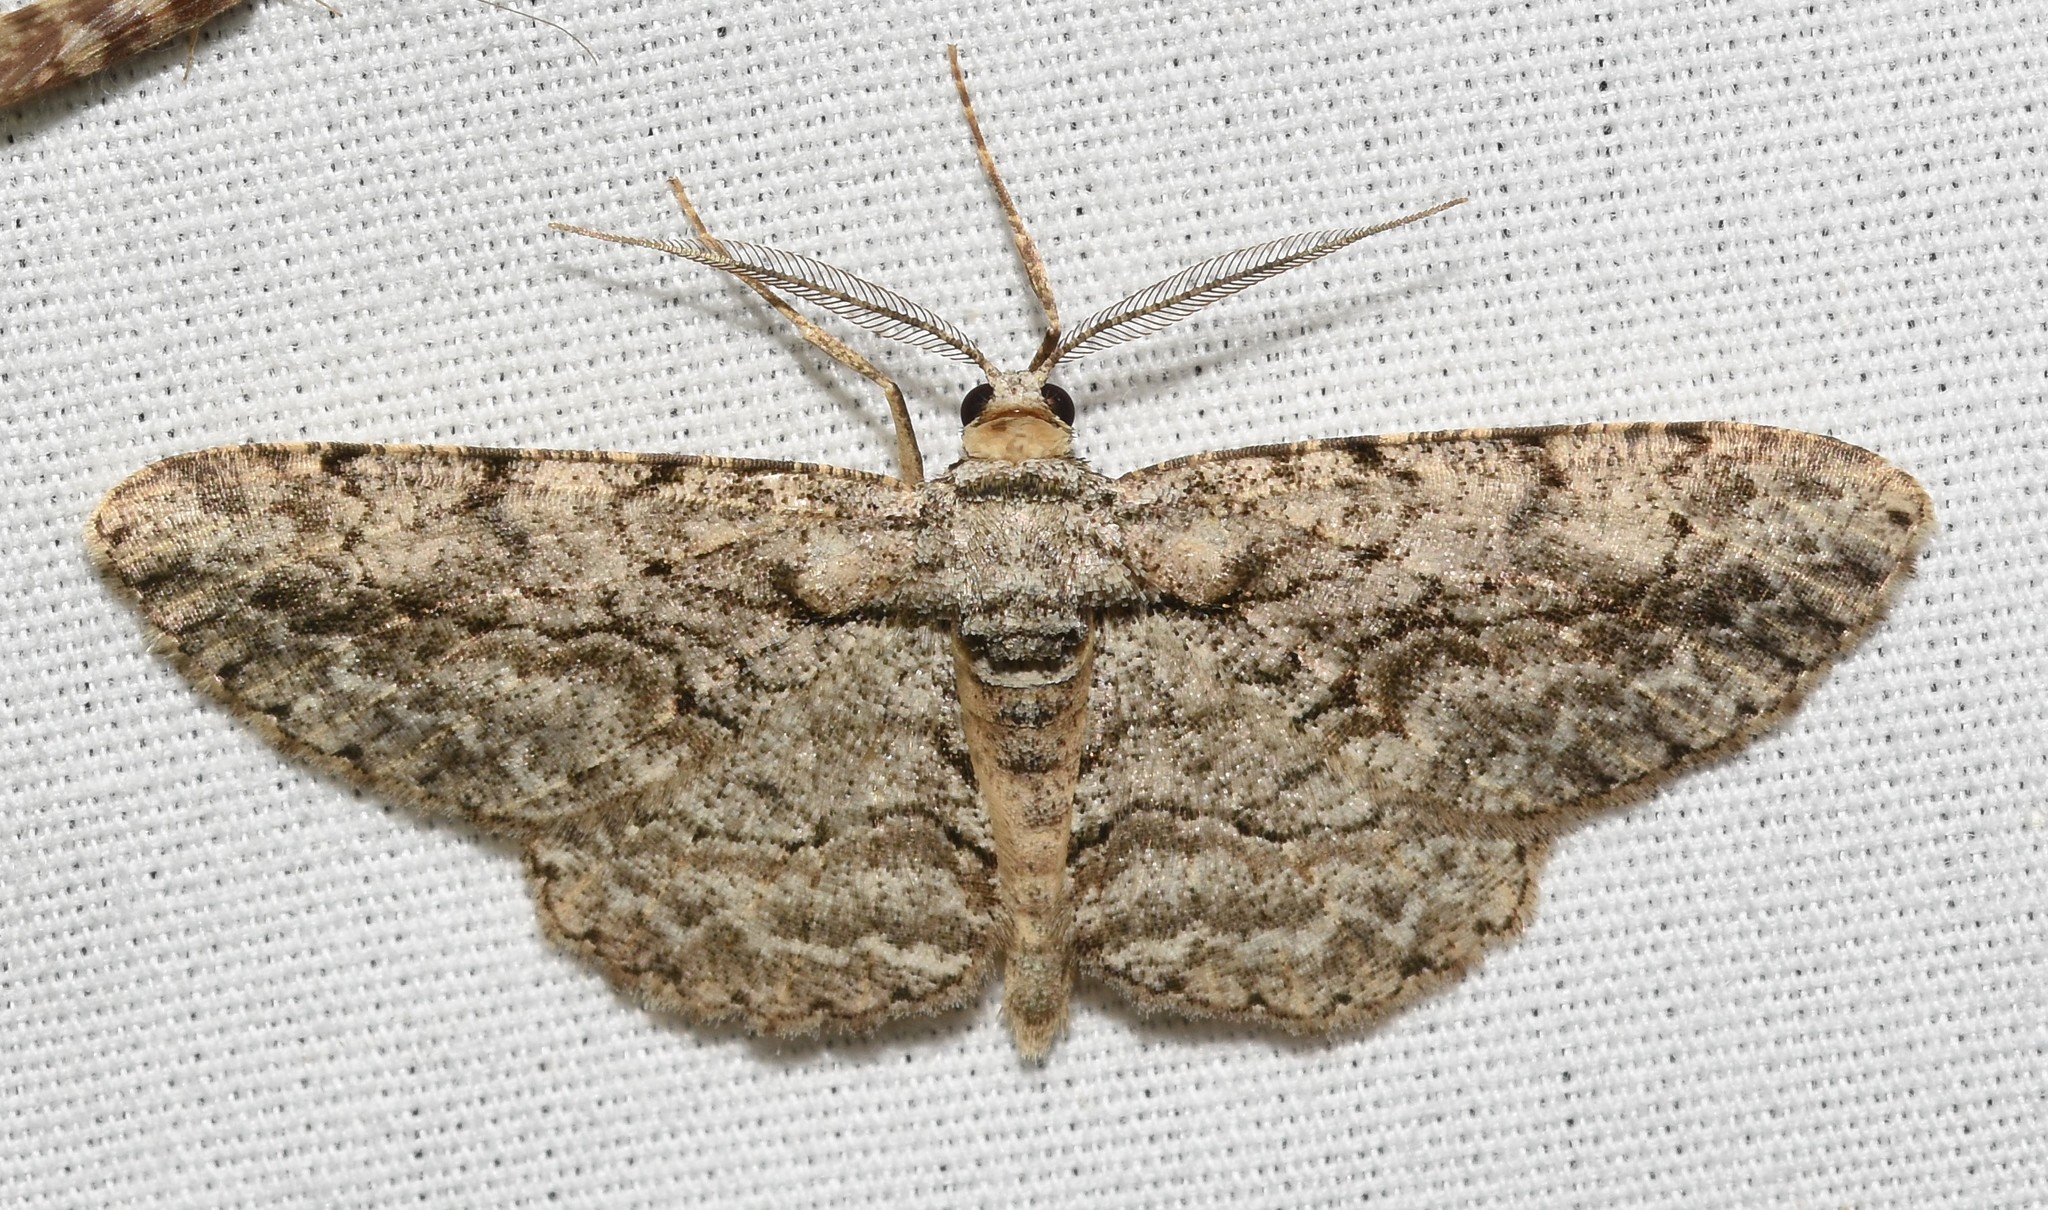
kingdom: Animalia
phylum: Arthropoda
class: Insecta
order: Lepidoptera
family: Geometridae
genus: Anavitrinella
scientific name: Anavitrinella pampinaria
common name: Common gray
